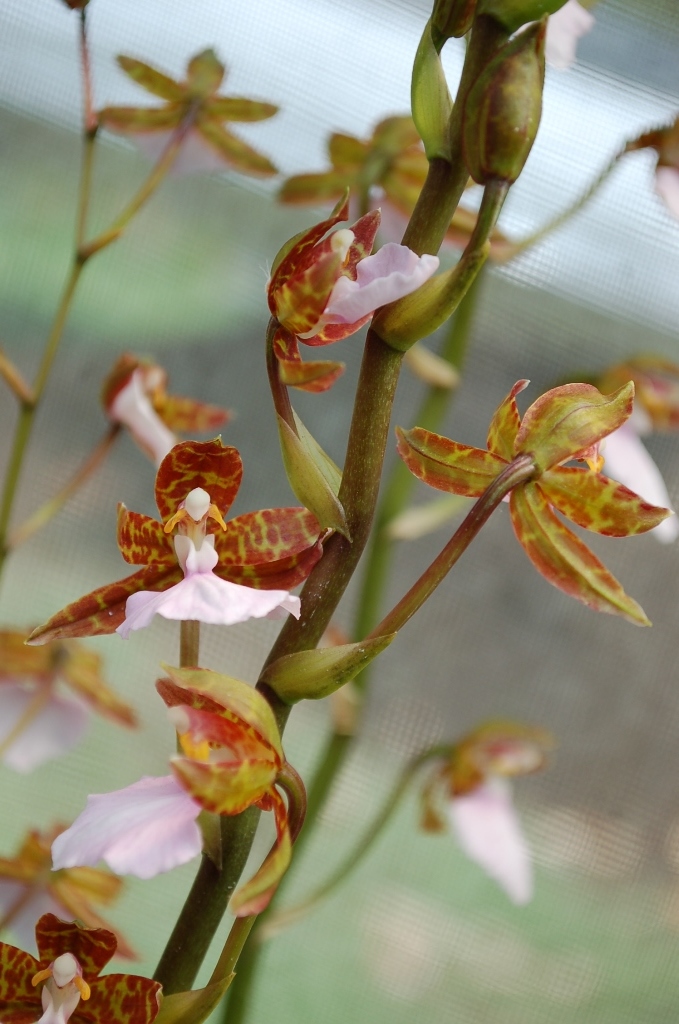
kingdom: Plantae
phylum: Tracheophyta
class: Liliopsida
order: Asparagales
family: Orchidaceae
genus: Rhynchostele
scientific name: Rhynchostele bictoniensis
